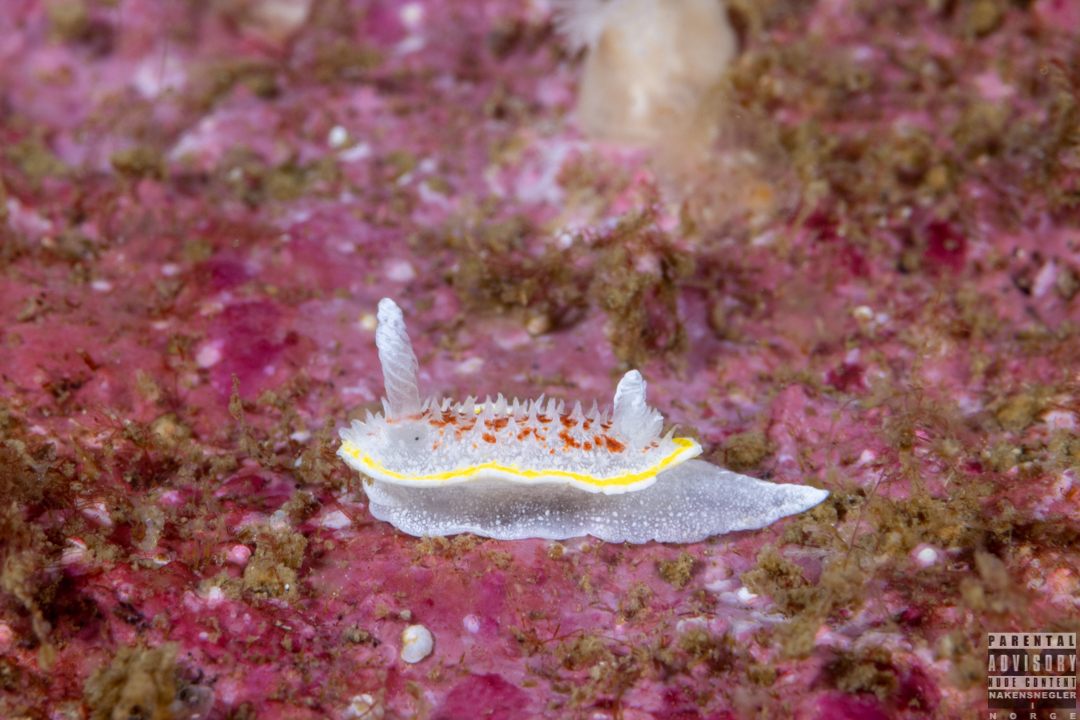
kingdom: Animalia
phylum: Mollusca
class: Gastropoda
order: Nudibranchia
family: Calycidorididae
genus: Diaphorodoris
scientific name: Diaphorodoris luteocincta
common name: Fried egg nudibranch
